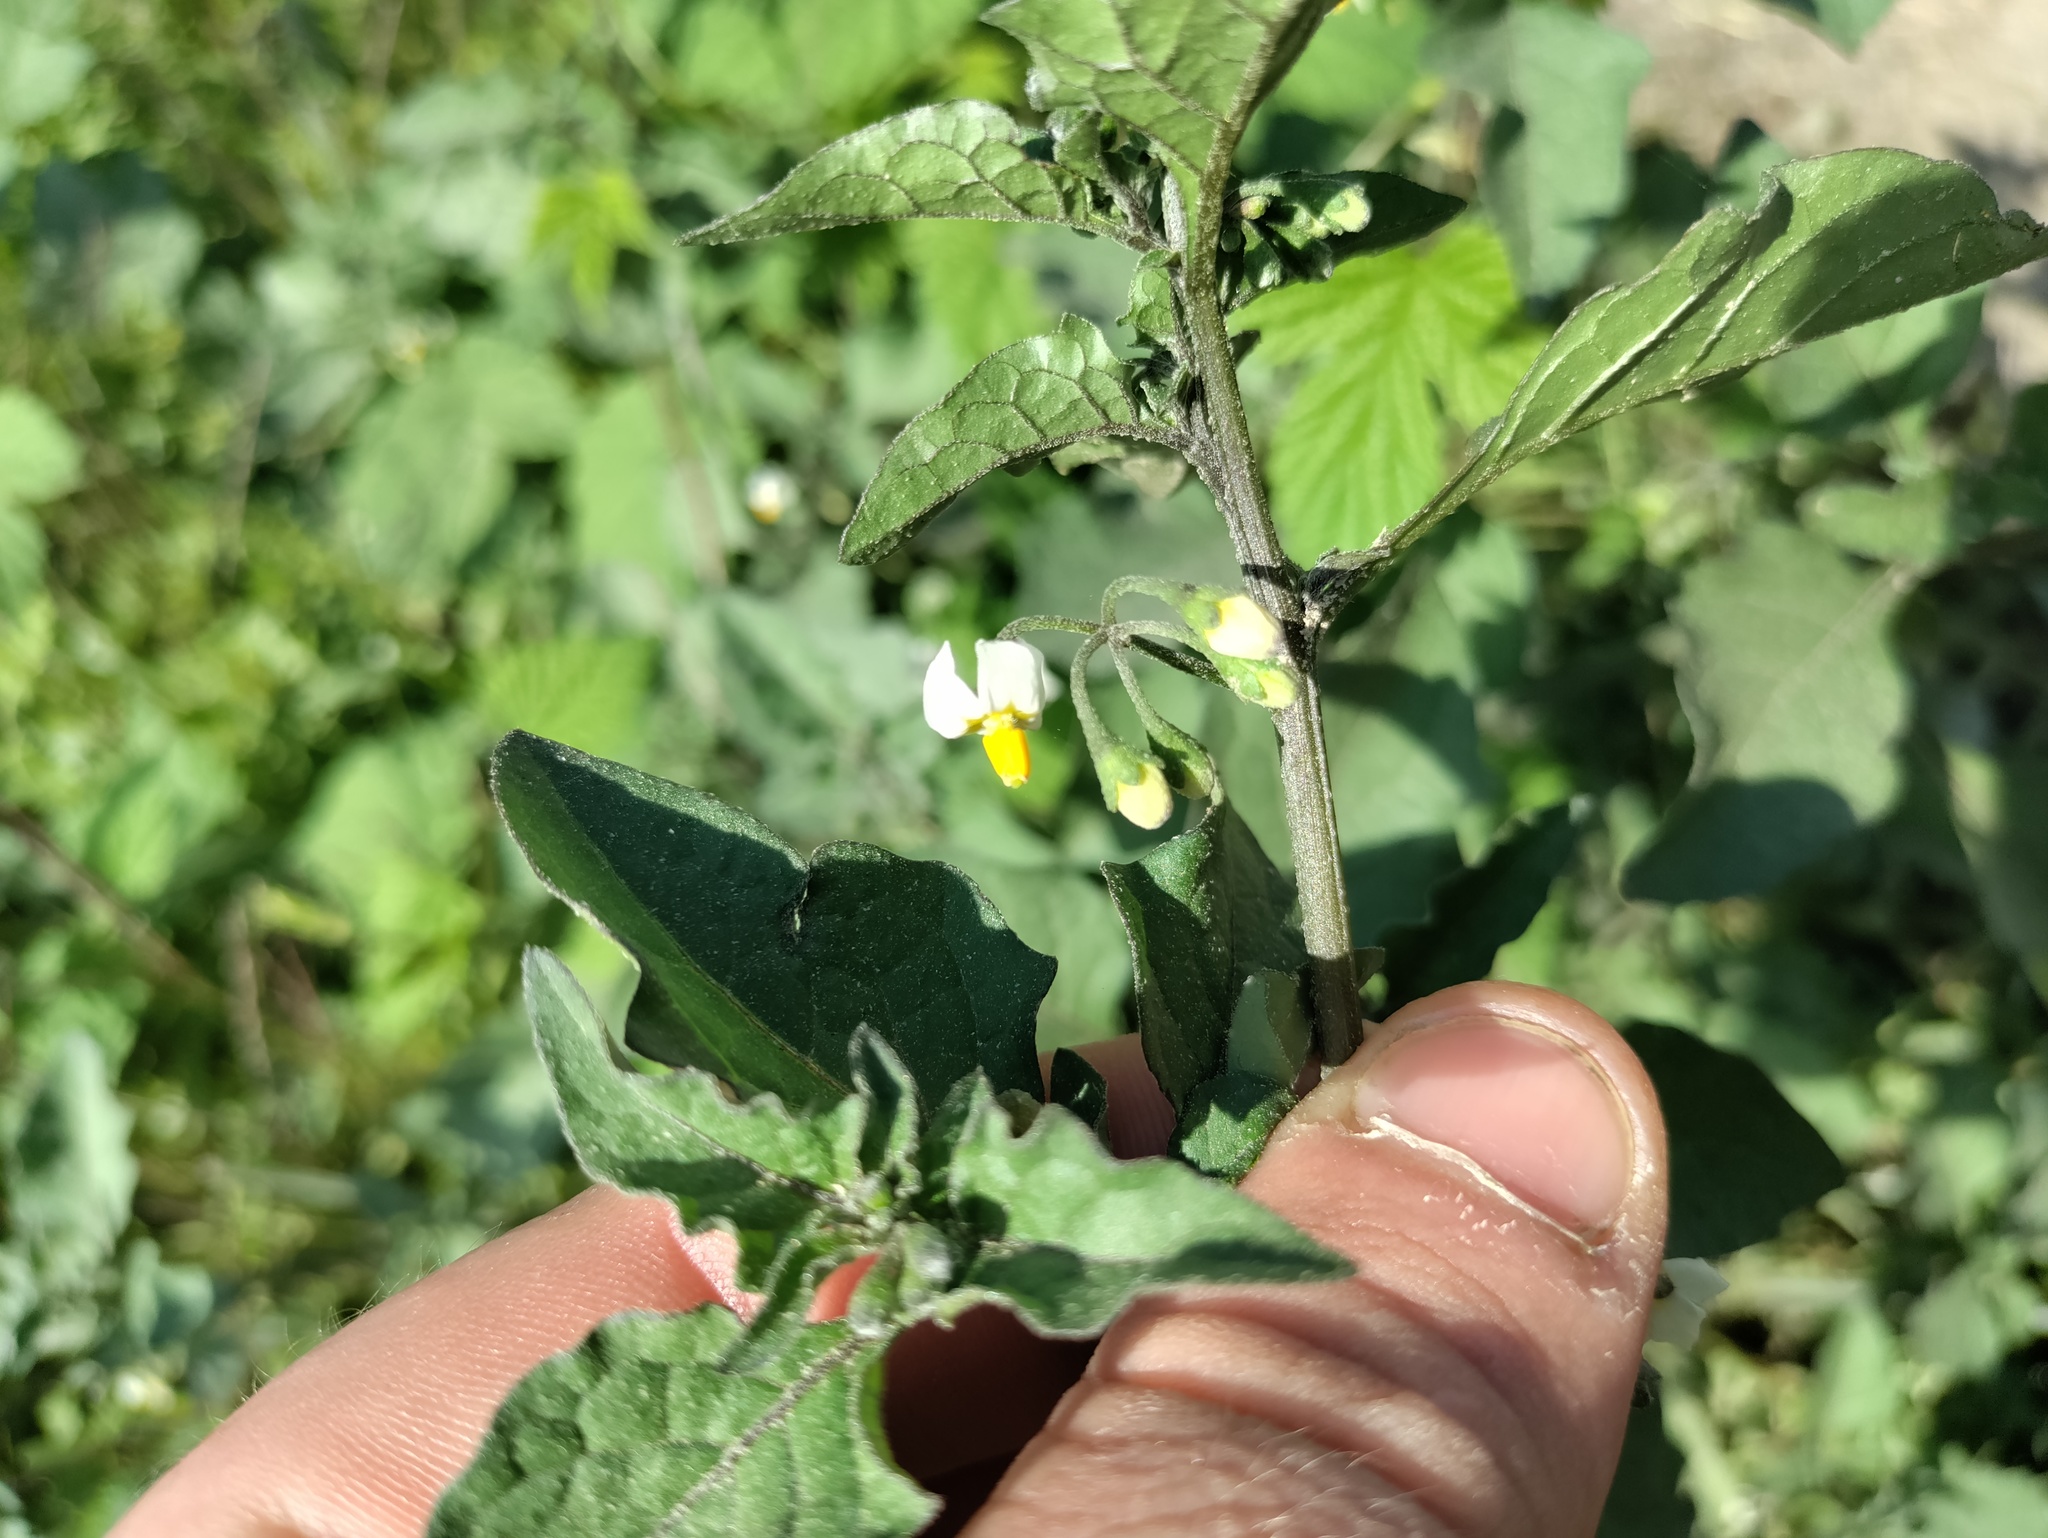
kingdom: Plantae
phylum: Tracheophyta
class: Magnoliopsida
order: Solanales
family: Solanaceae
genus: Solanum
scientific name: Solanum nigrum
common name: Black nightshade
